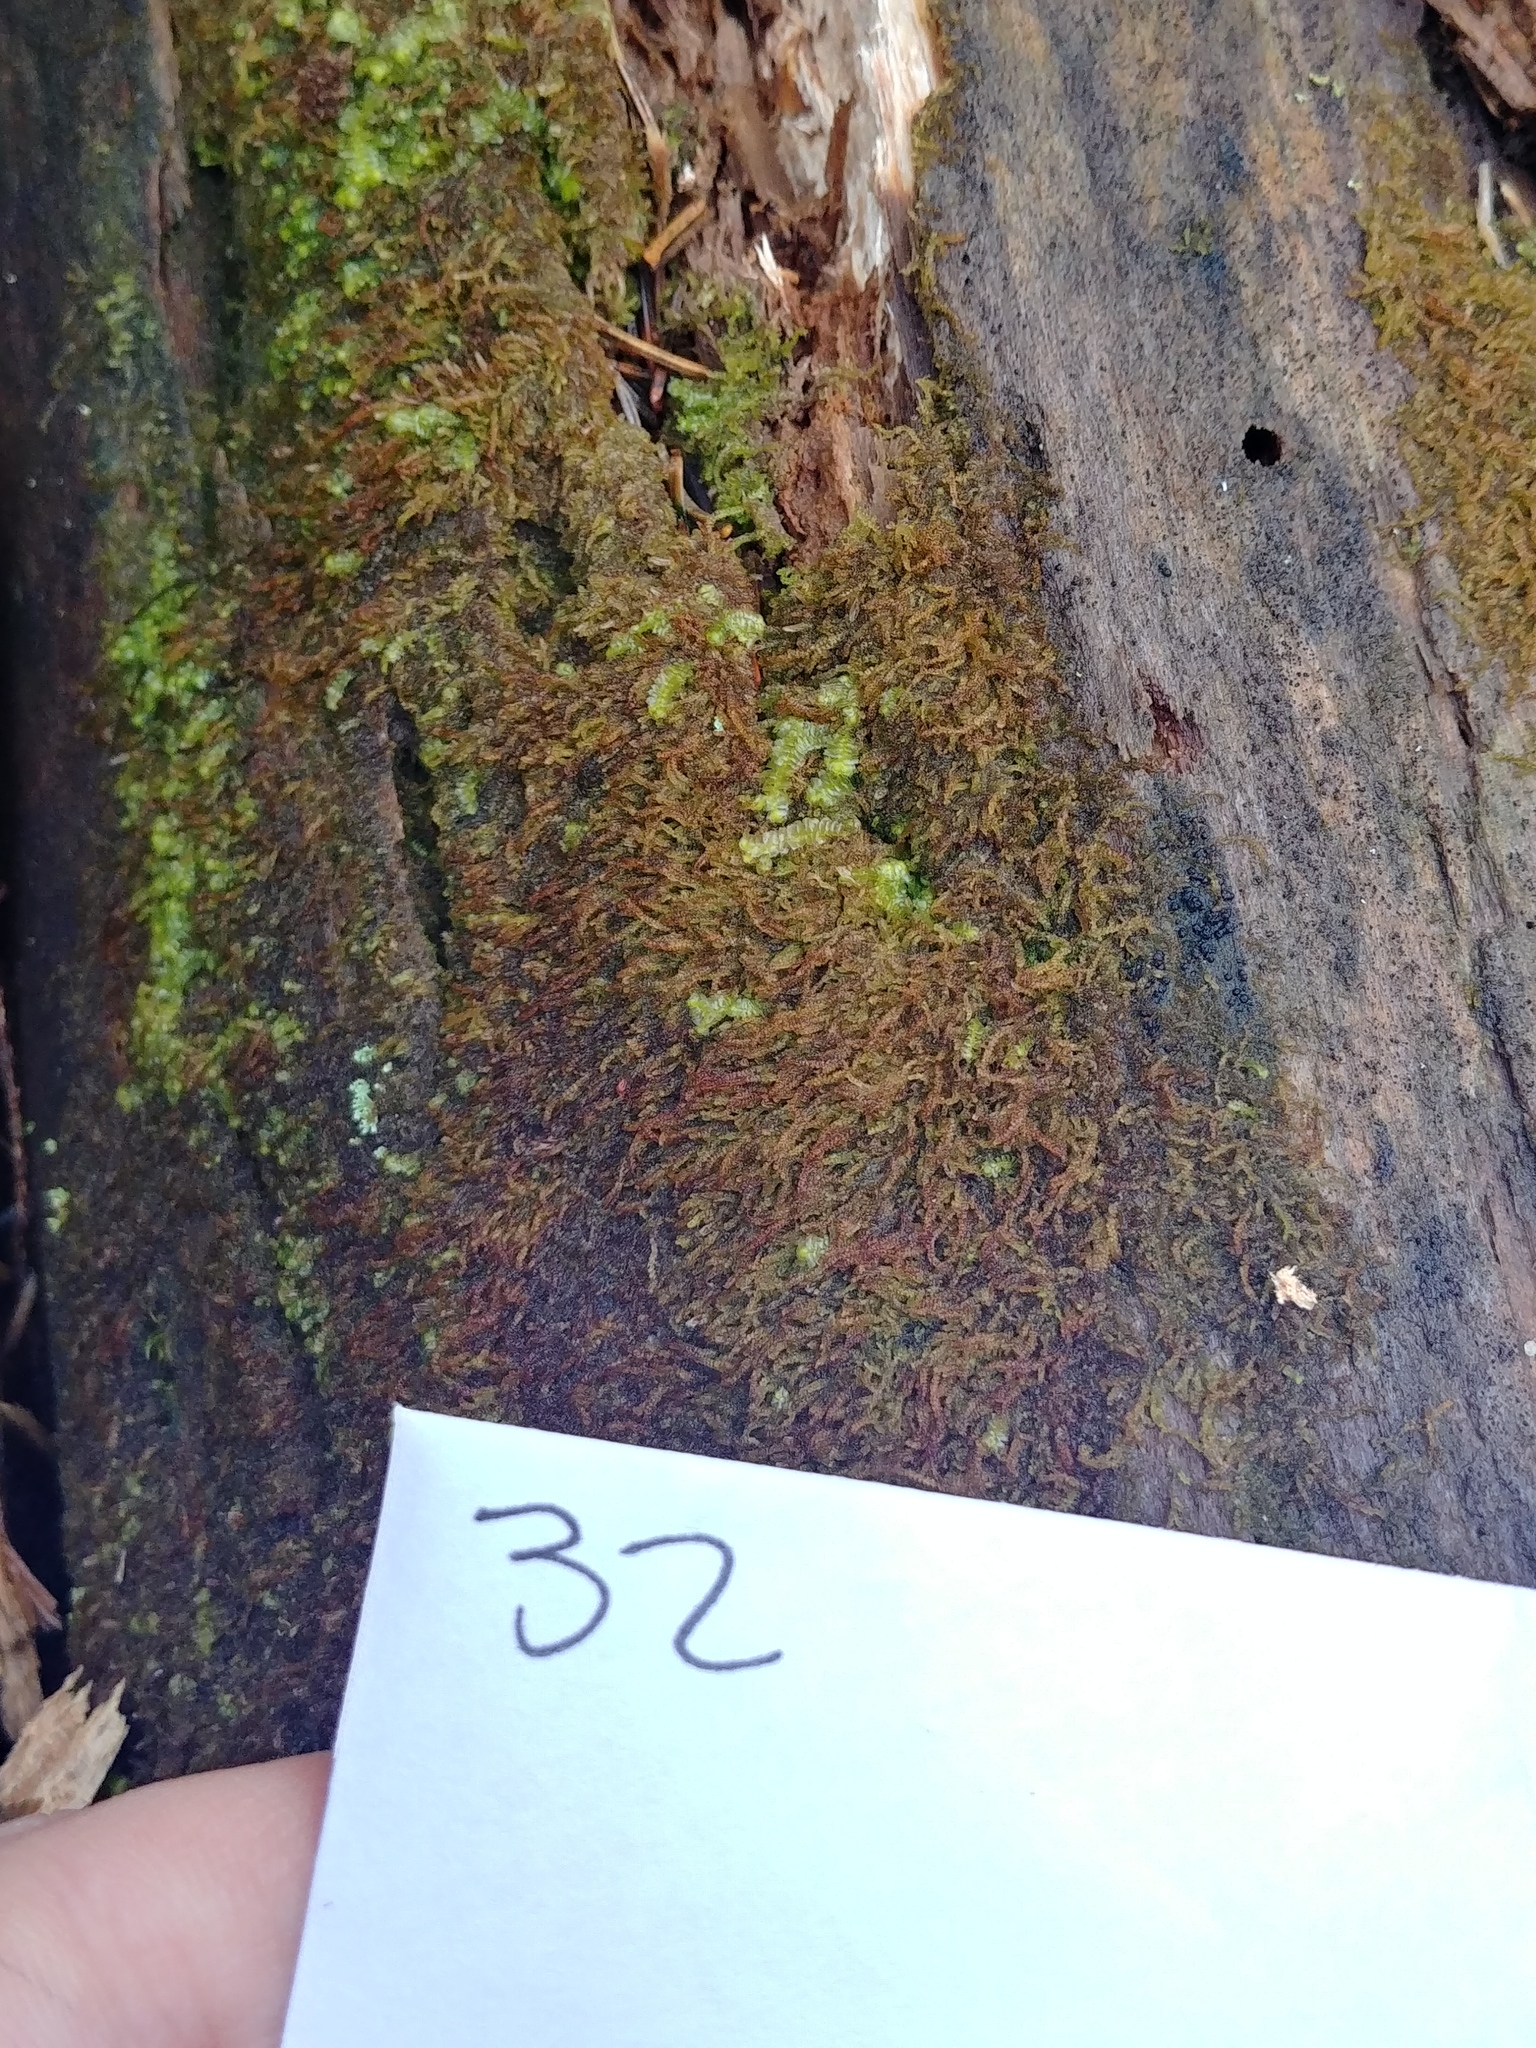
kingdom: Plantae
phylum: Marchantiophyta
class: Jungermanniopsida
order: Jungermanniales
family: Cephaloziaceae
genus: Nowellia
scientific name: Nowellia curvifolia
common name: Wood rustwort
